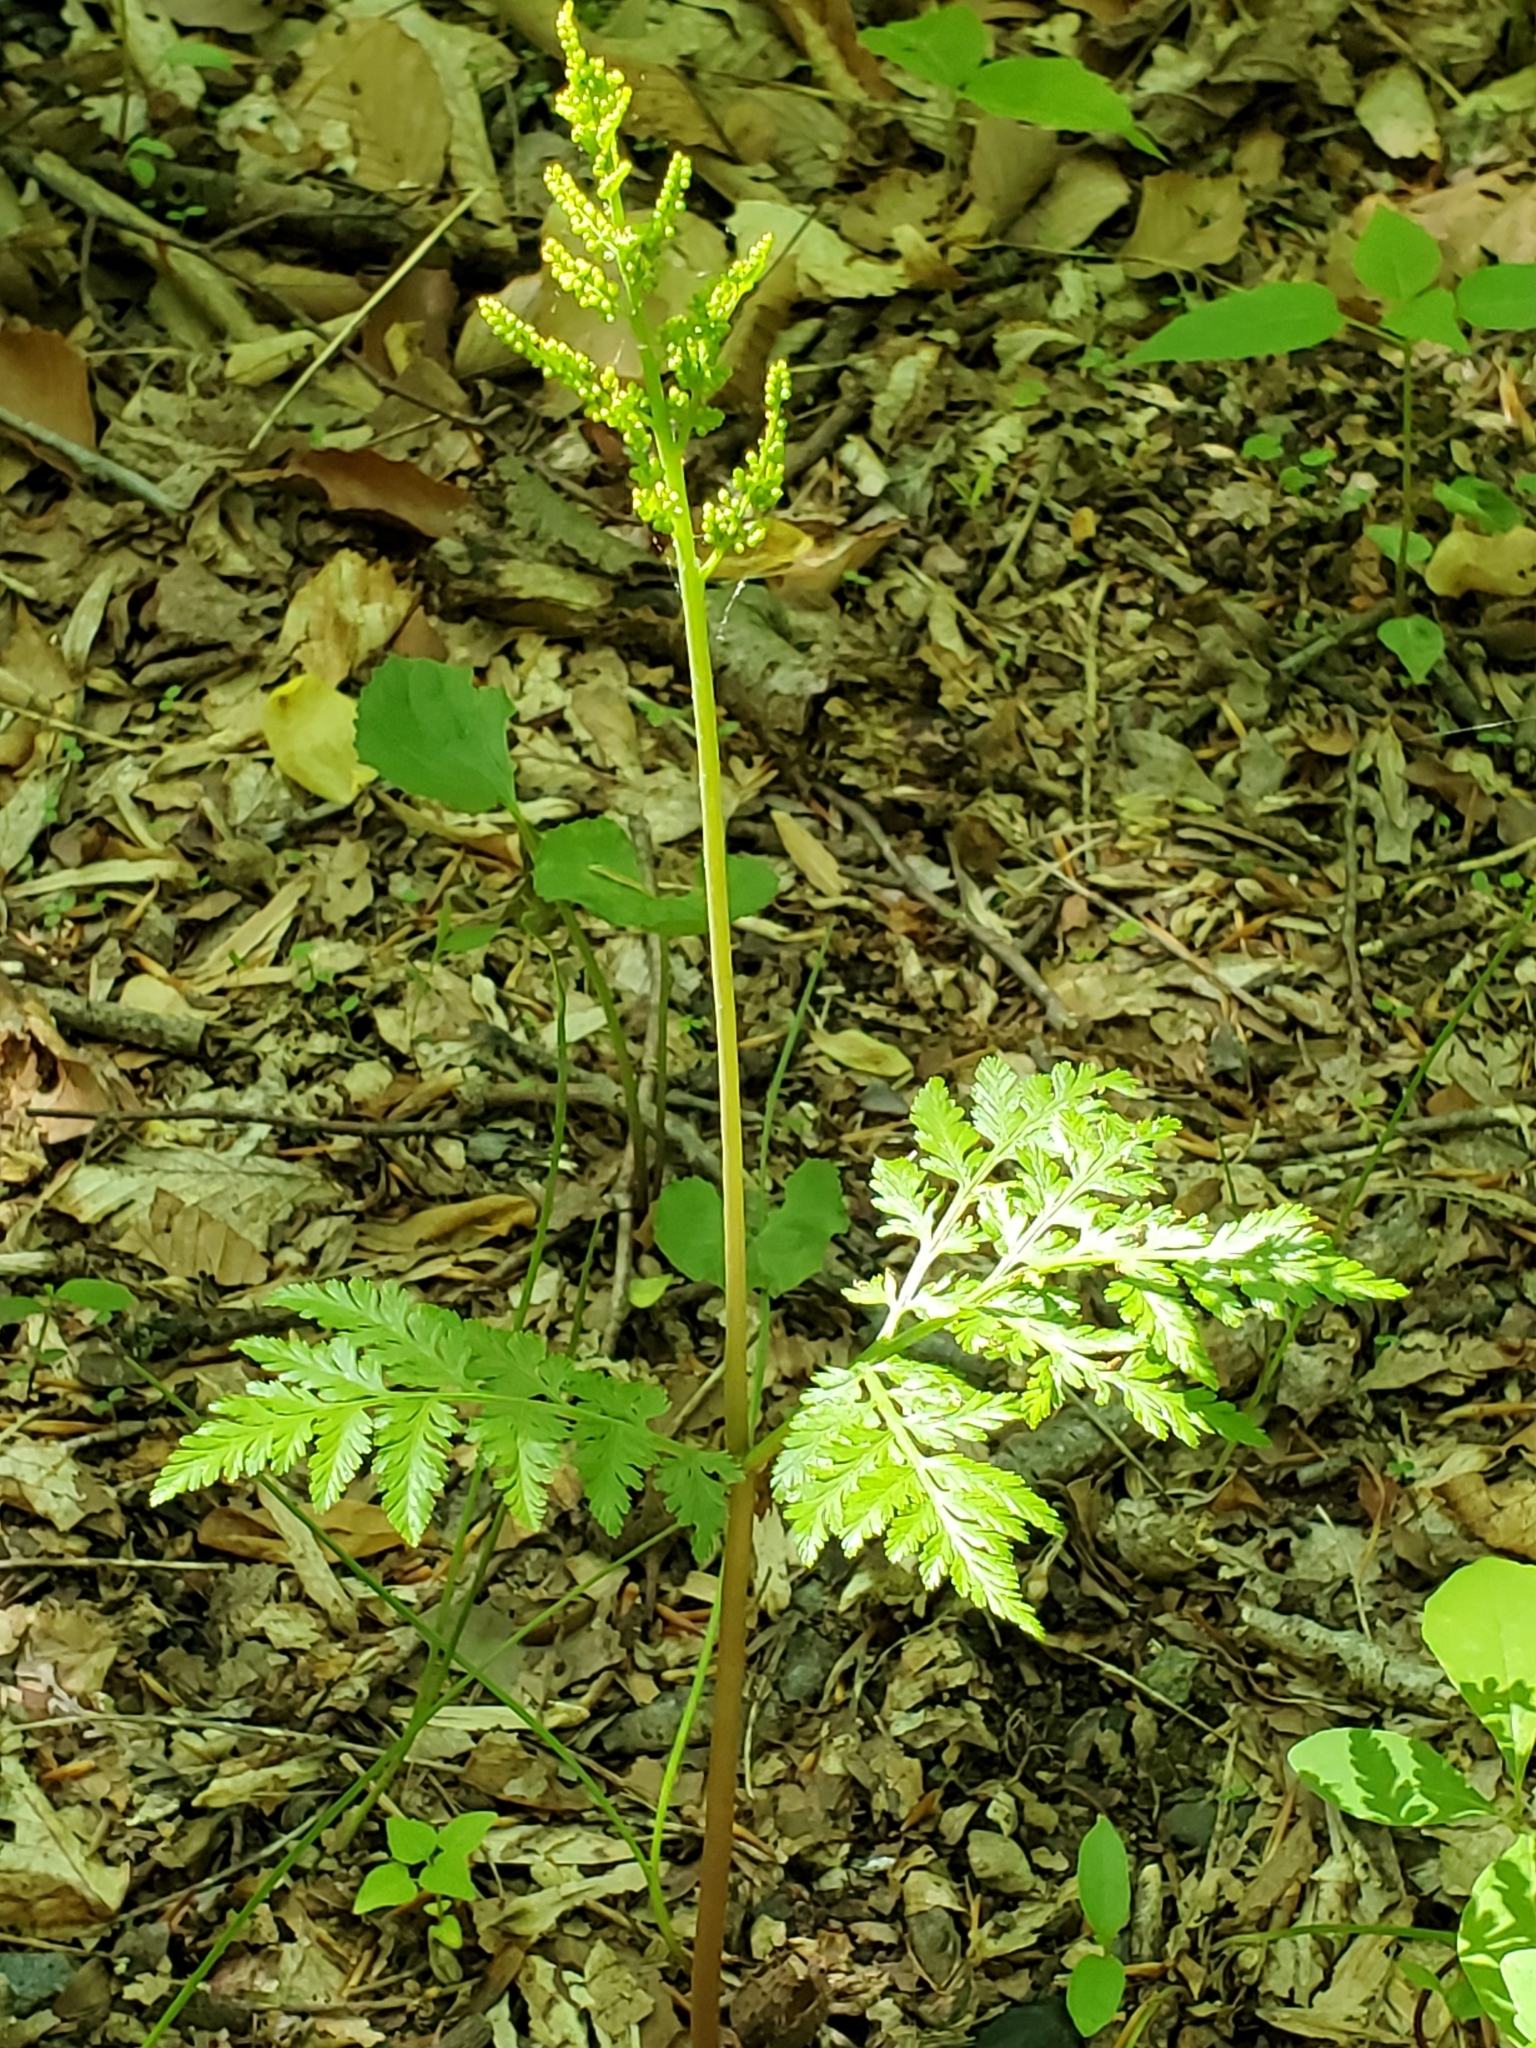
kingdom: Plantae
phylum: Tracheophyta
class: Polypodiopsida
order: Ophioglossales
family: Ophioglossaceae
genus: Botrypus
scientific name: Botrypus virginianus
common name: Common grapefern
